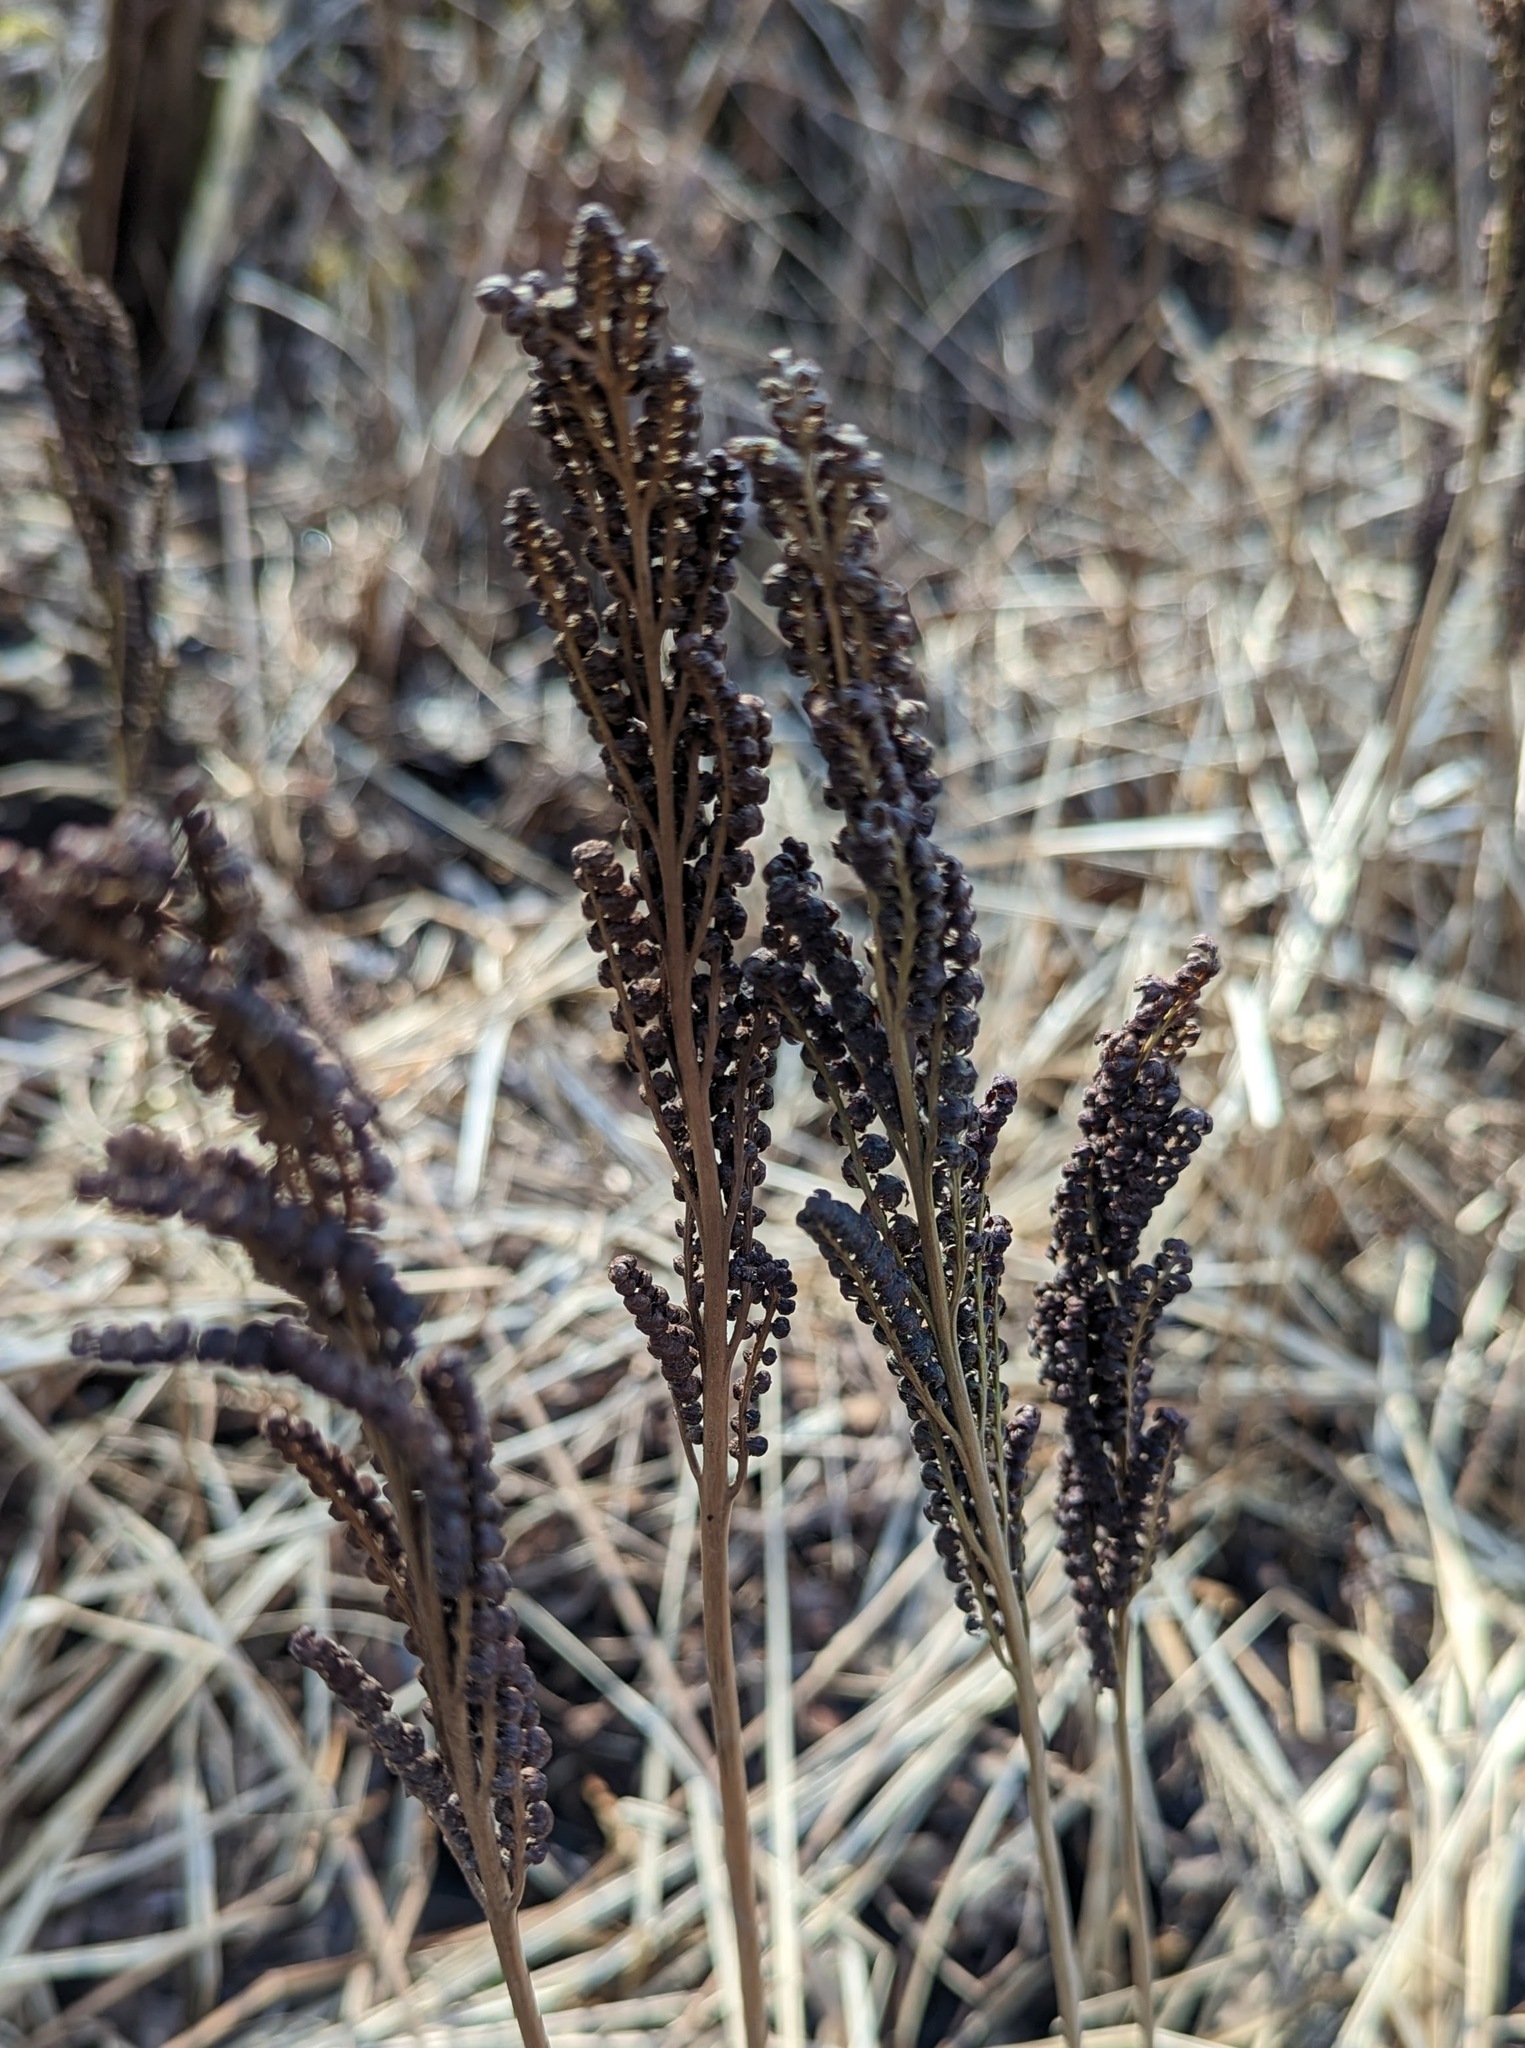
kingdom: Plantae
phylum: Tracheophyta
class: Polypodiopsida
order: Polypodiales
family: Onocleaceae
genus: Onoclea
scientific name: Onoclea sensibilis
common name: Sensitive fern
